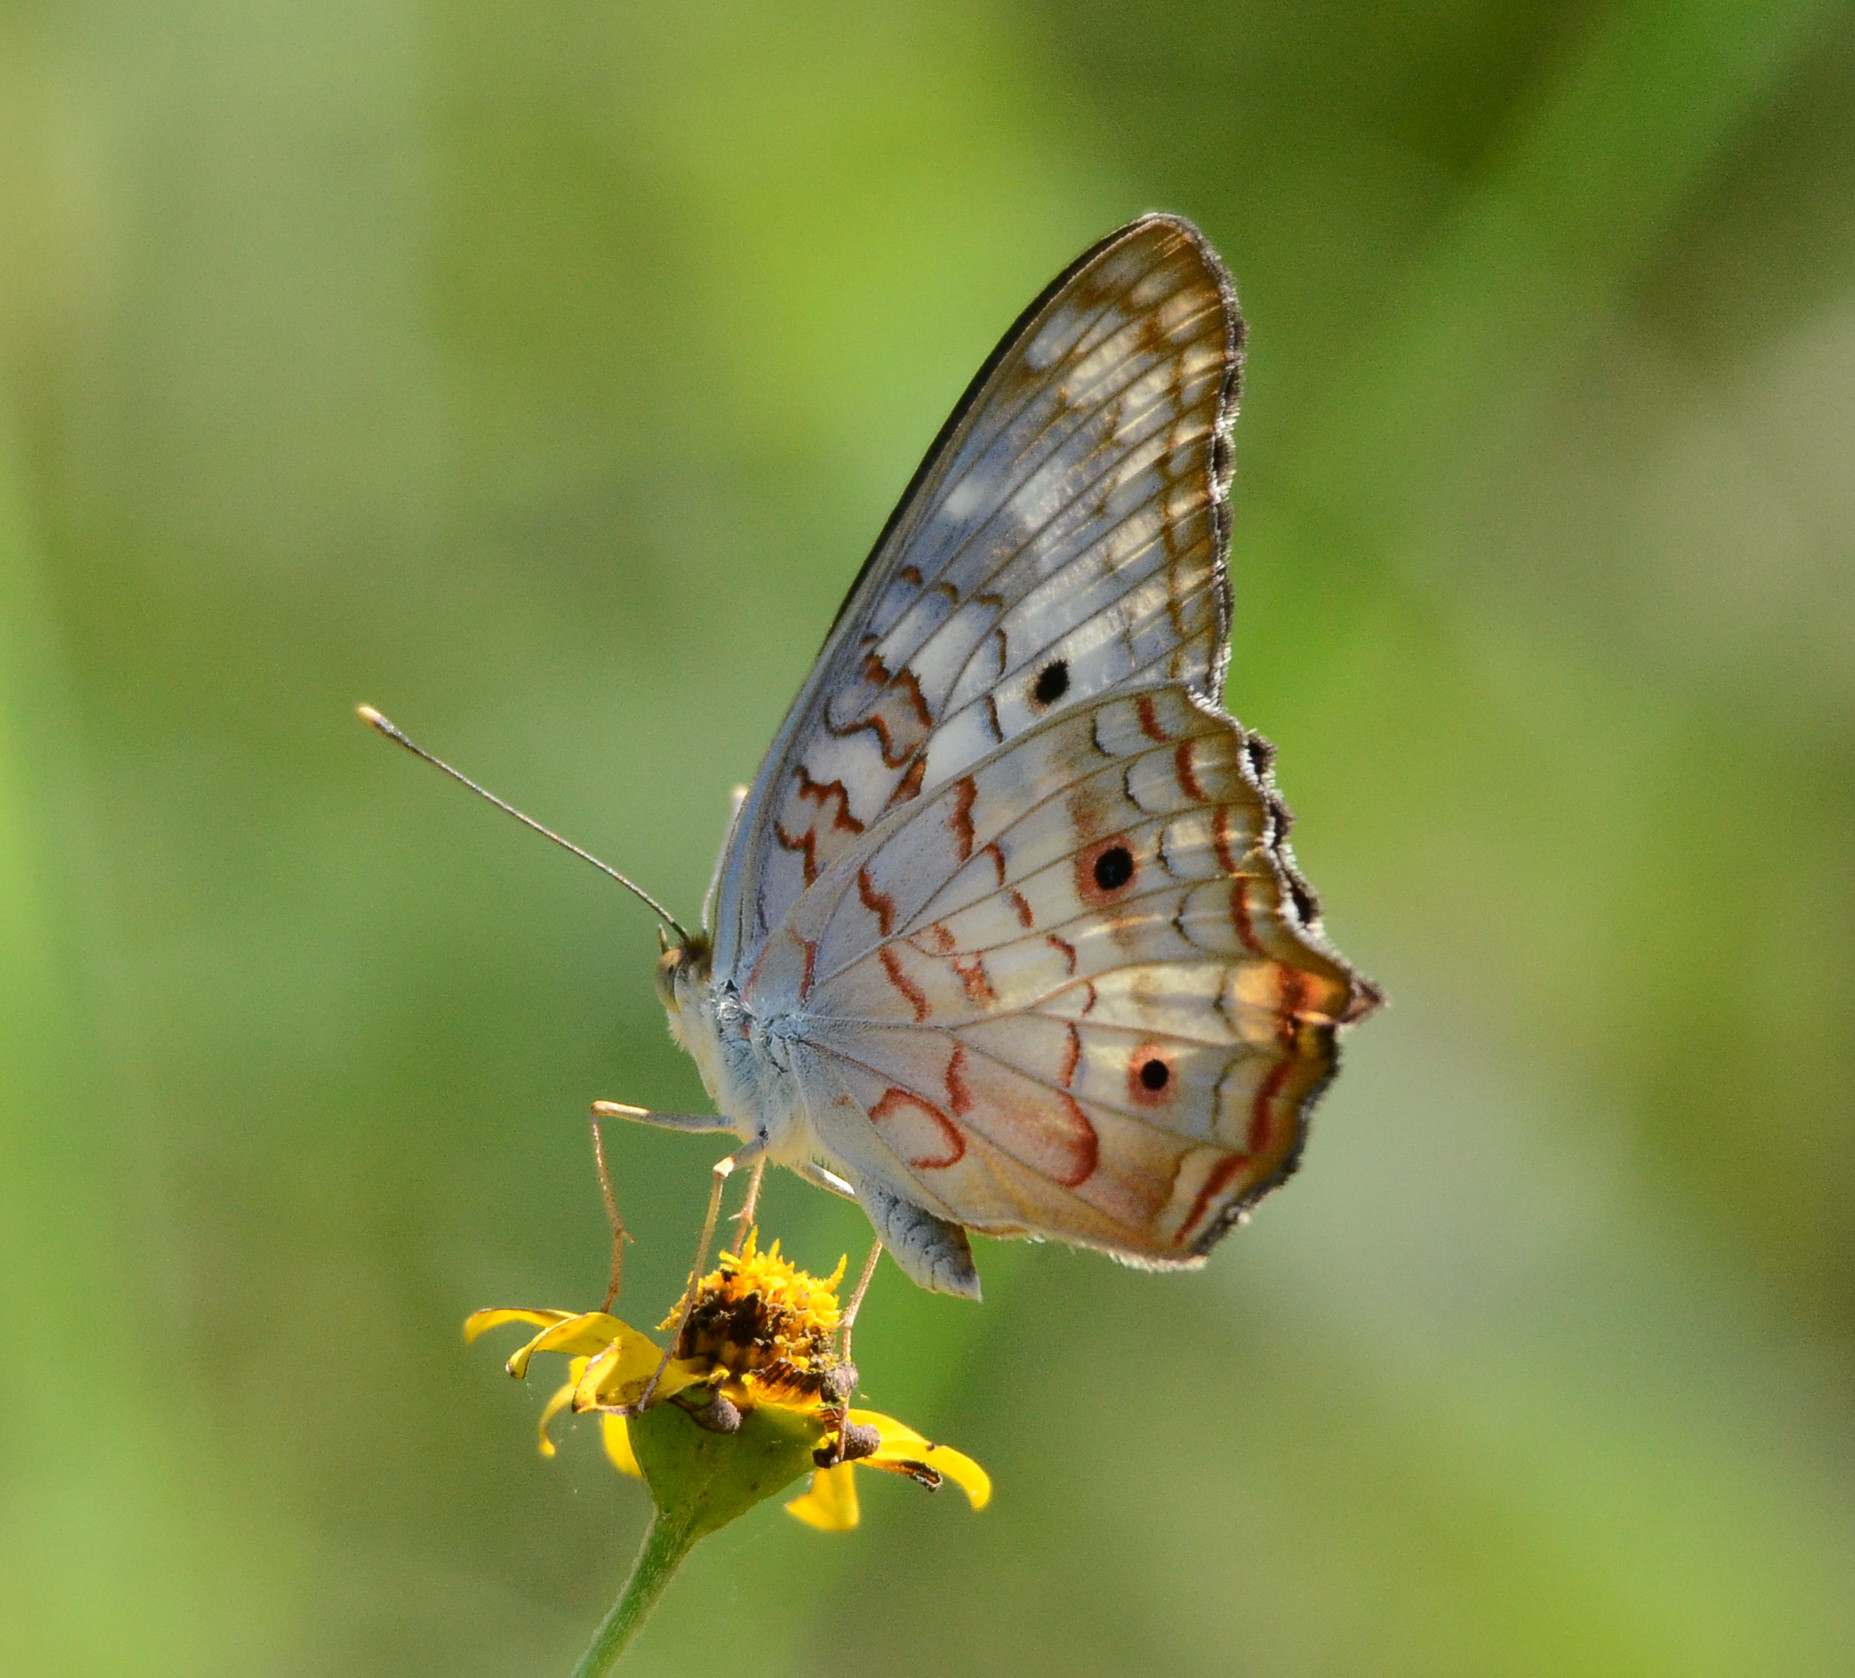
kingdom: Animalia
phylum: Arthropoda
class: Insecta
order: Lepidoptera
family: Nymphalidae
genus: Anartia
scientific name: Anartia jatrophae
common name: White peacock
